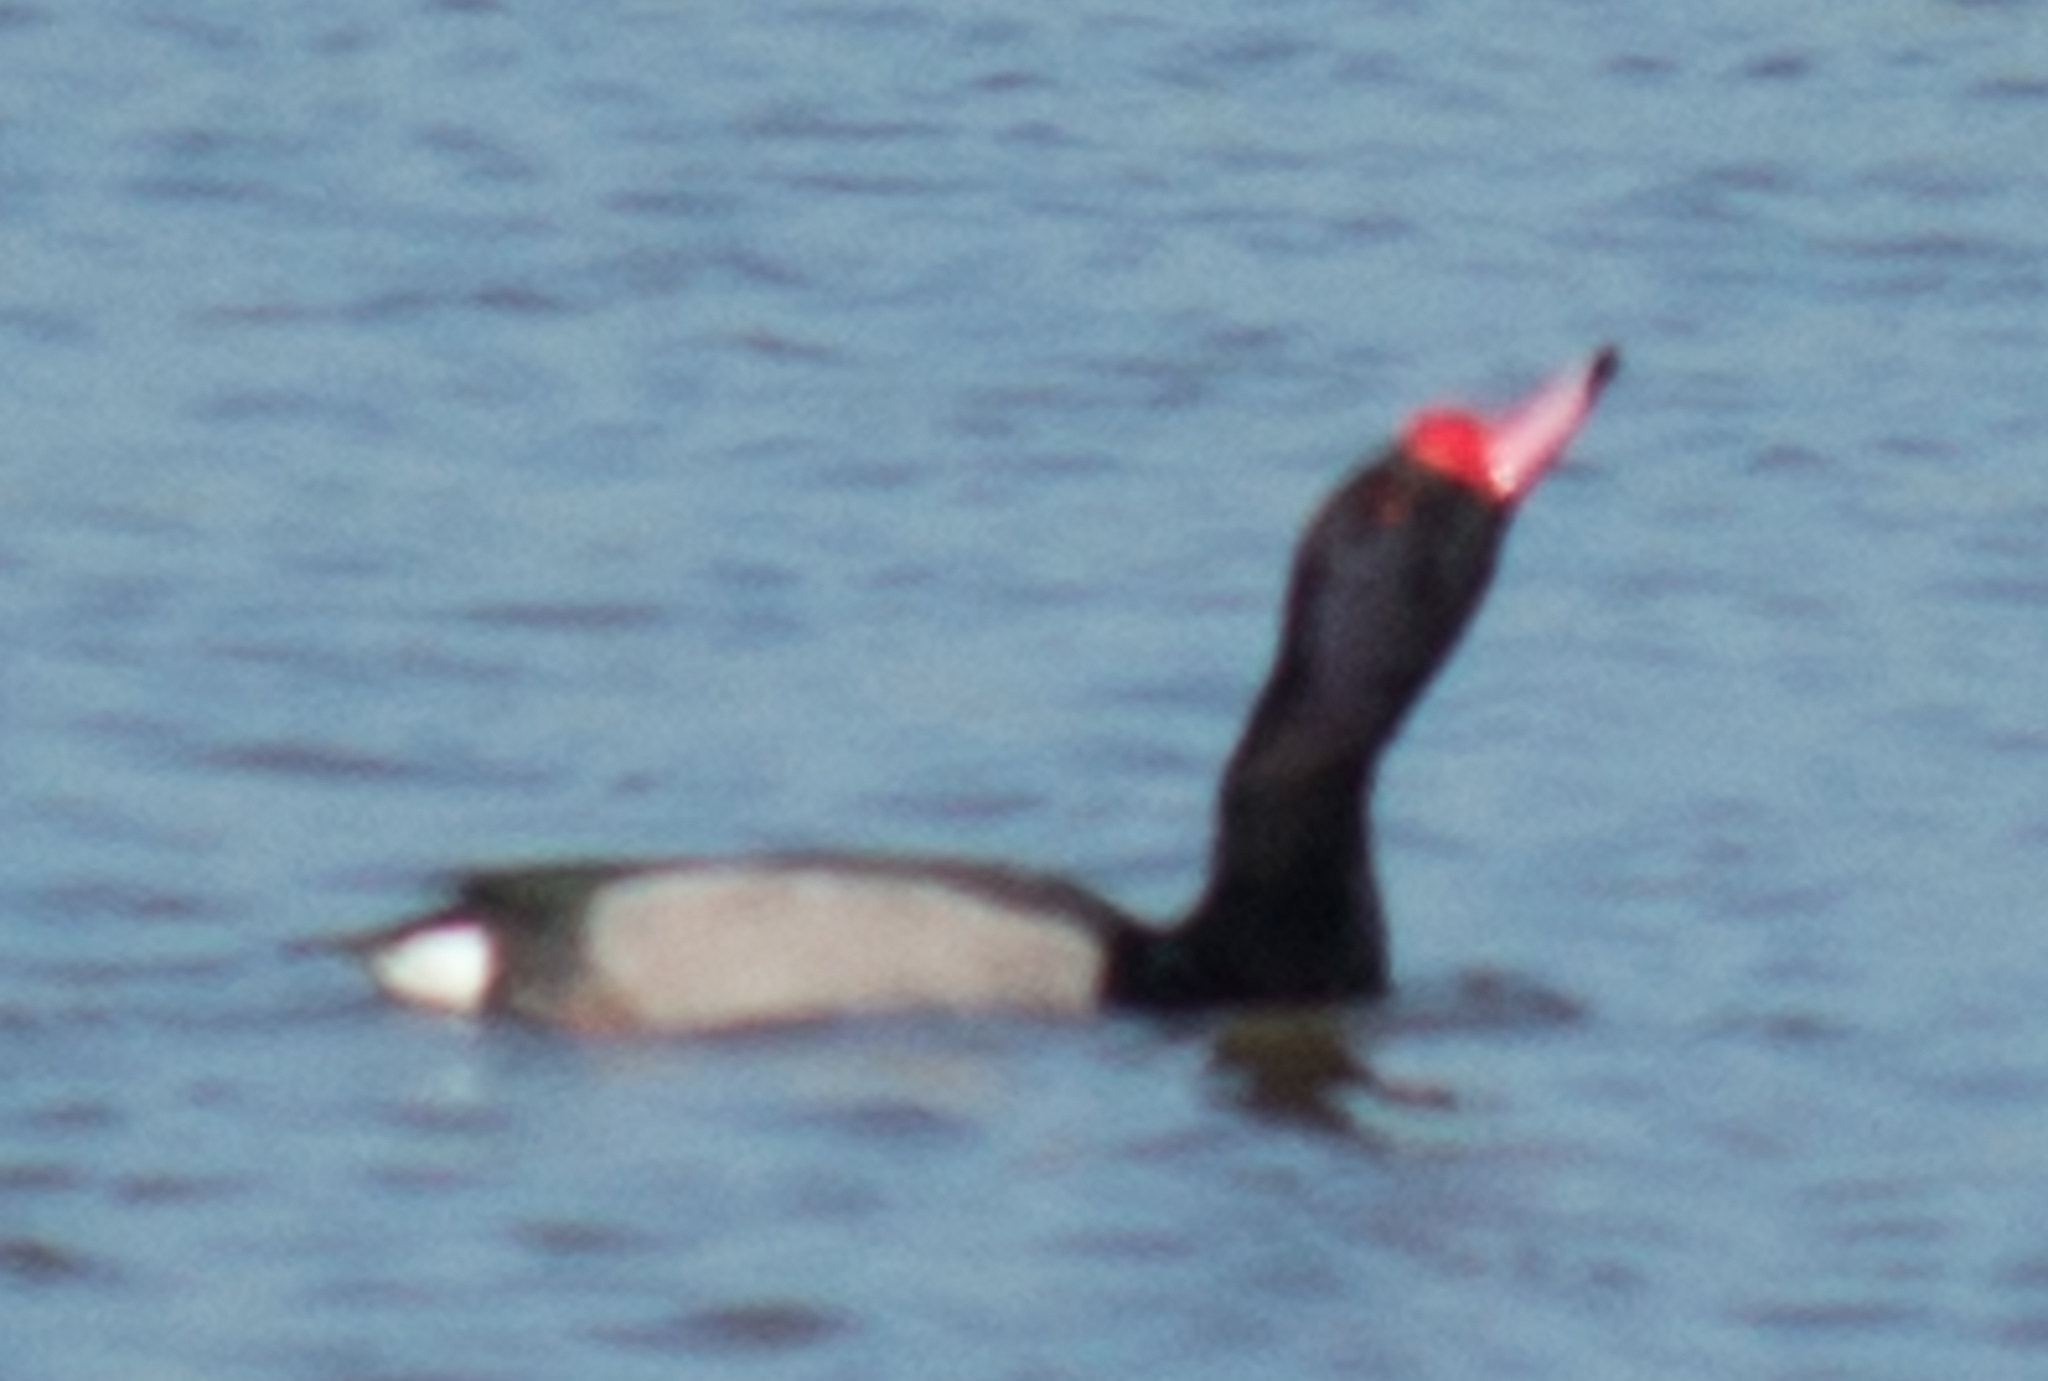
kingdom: Animalia
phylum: Chordata
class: Aves
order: Anseriformes
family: Anatidae
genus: Netta
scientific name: Netta peposaca
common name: Rosy-billed pochard
